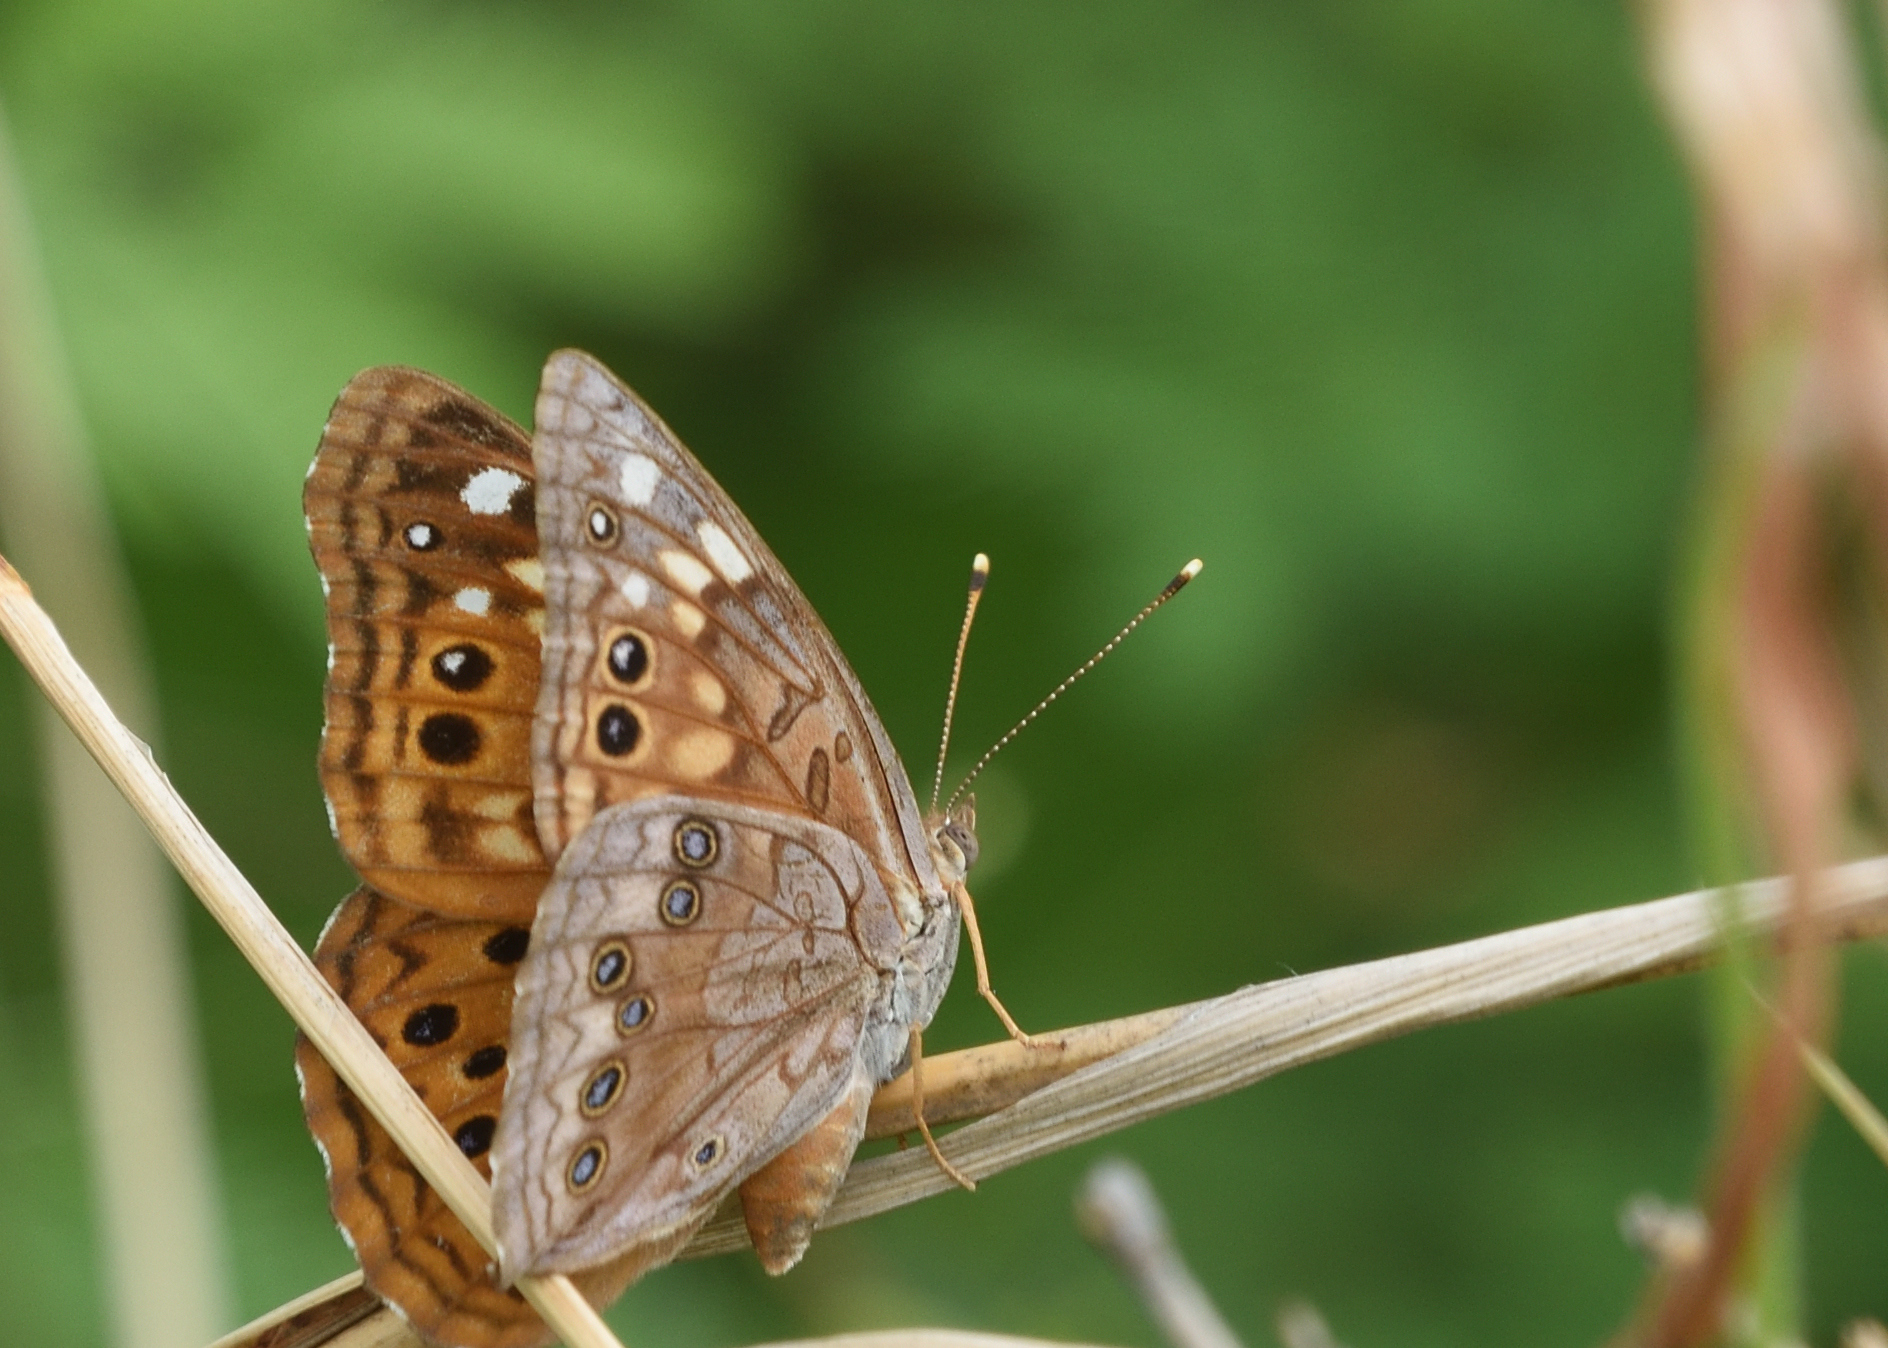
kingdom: Animalia
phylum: Arthropoda
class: Insecta
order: Lepidoptera
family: Nymphalidae
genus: Asterocampa
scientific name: Asterocampa celtis
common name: Hackberry emperor
